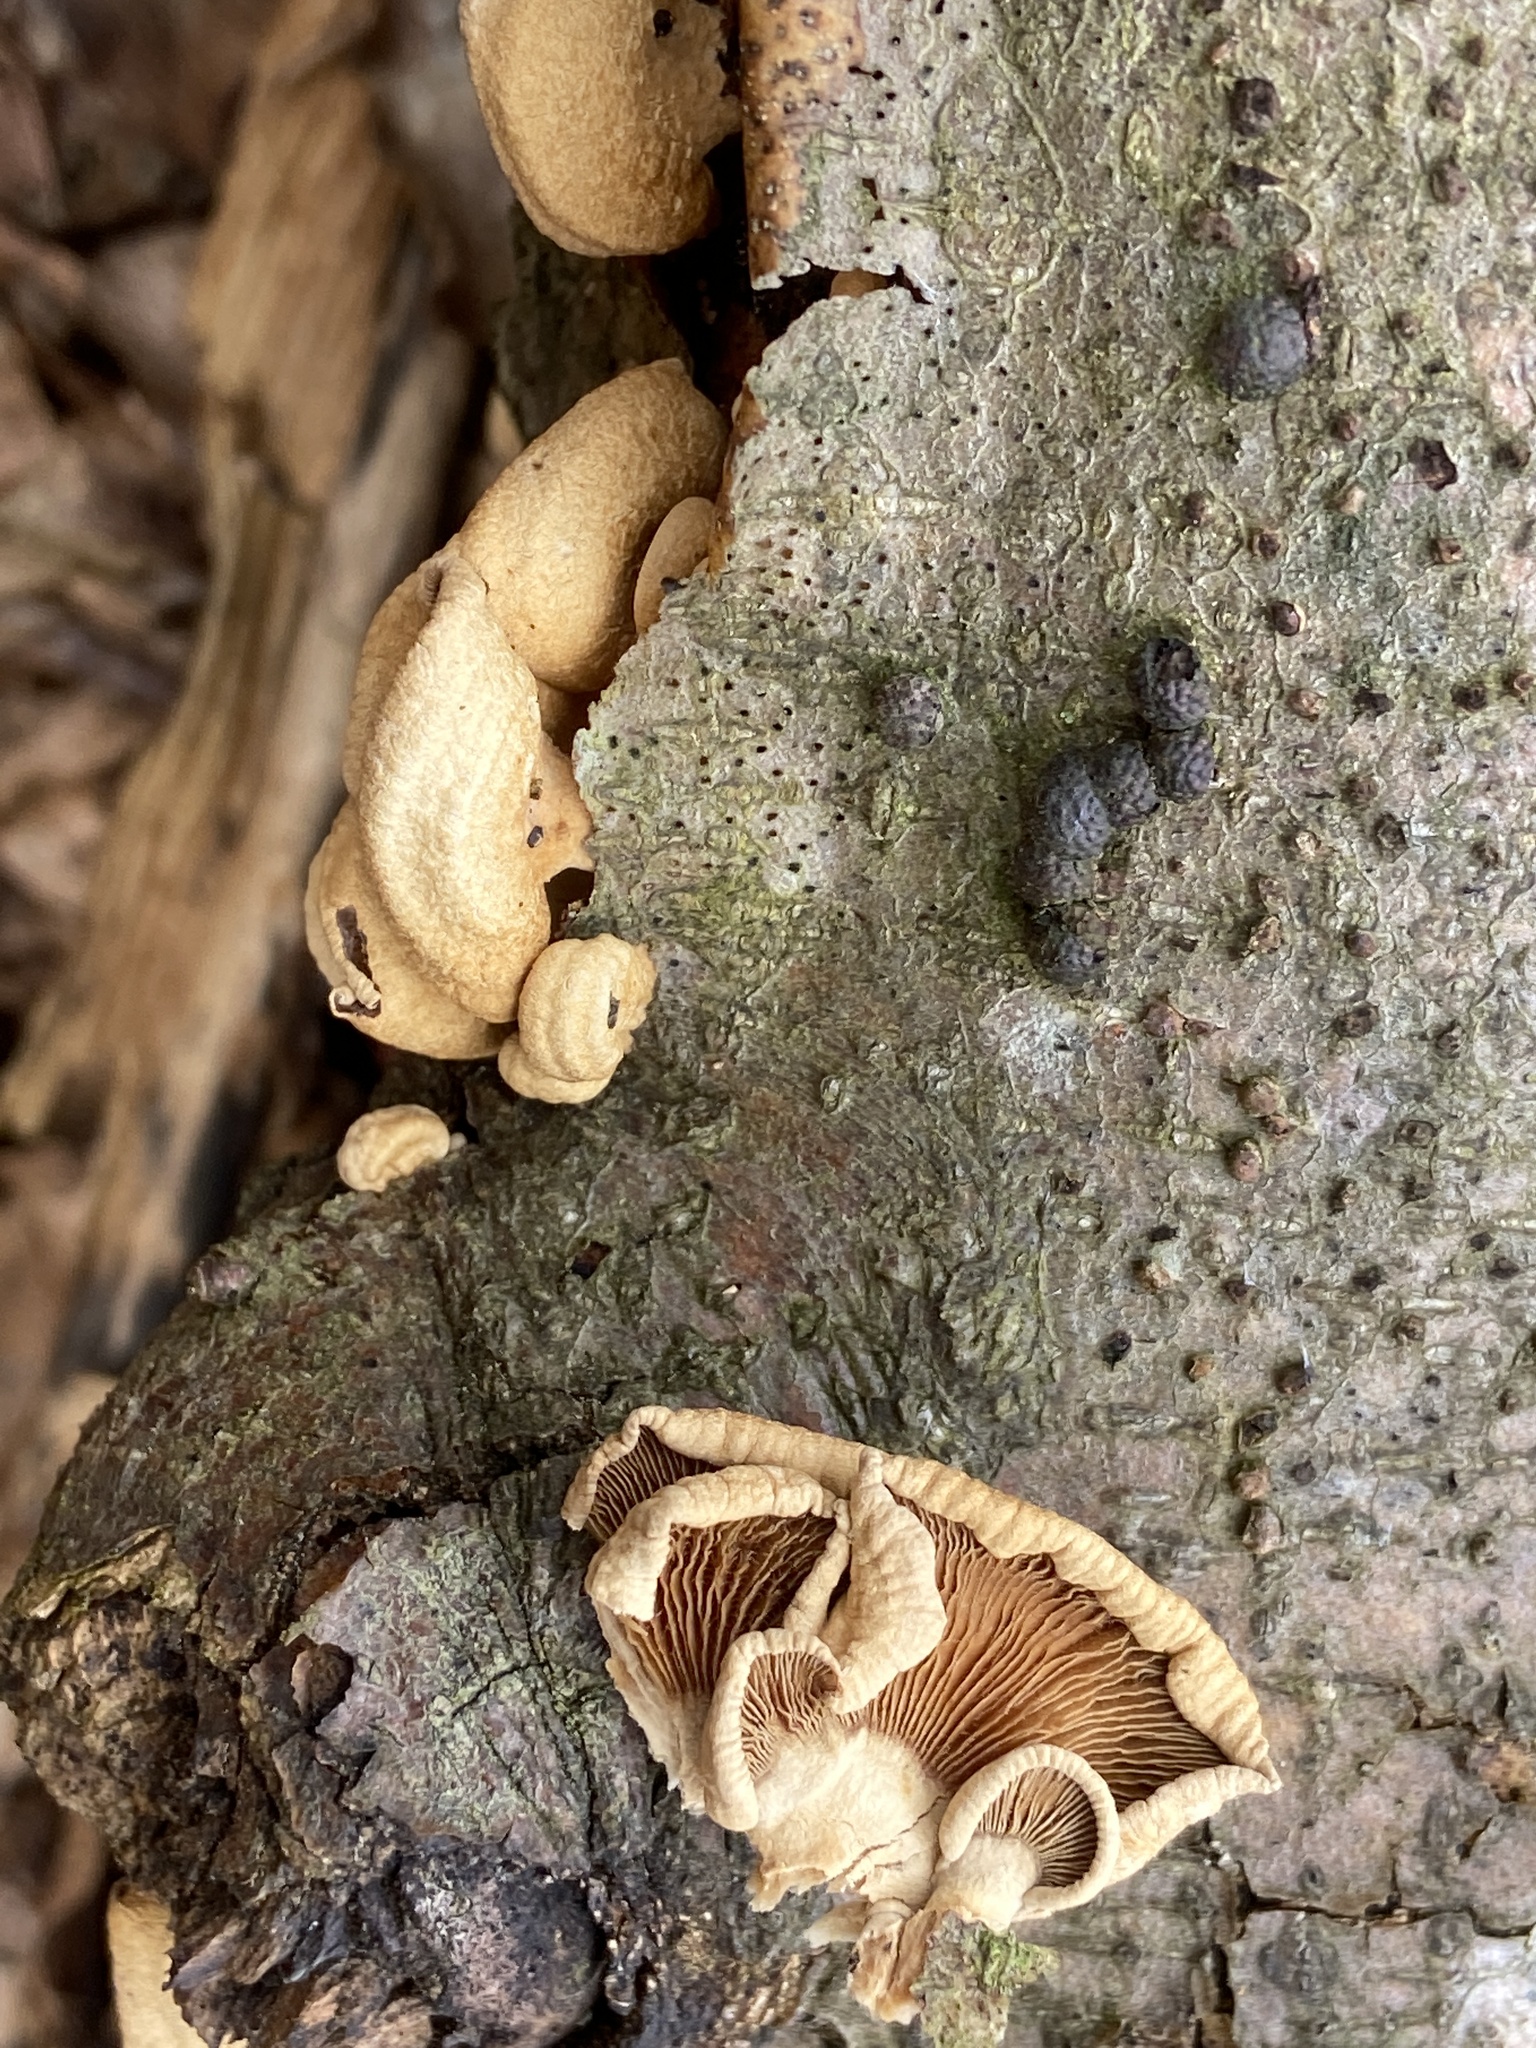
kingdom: Fungi
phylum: Basidiomycota
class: Agaricomycetes
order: Agaricales
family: Mycenaceae
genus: Panellus
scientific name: Panellus stipticus
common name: Bitter oysterling
